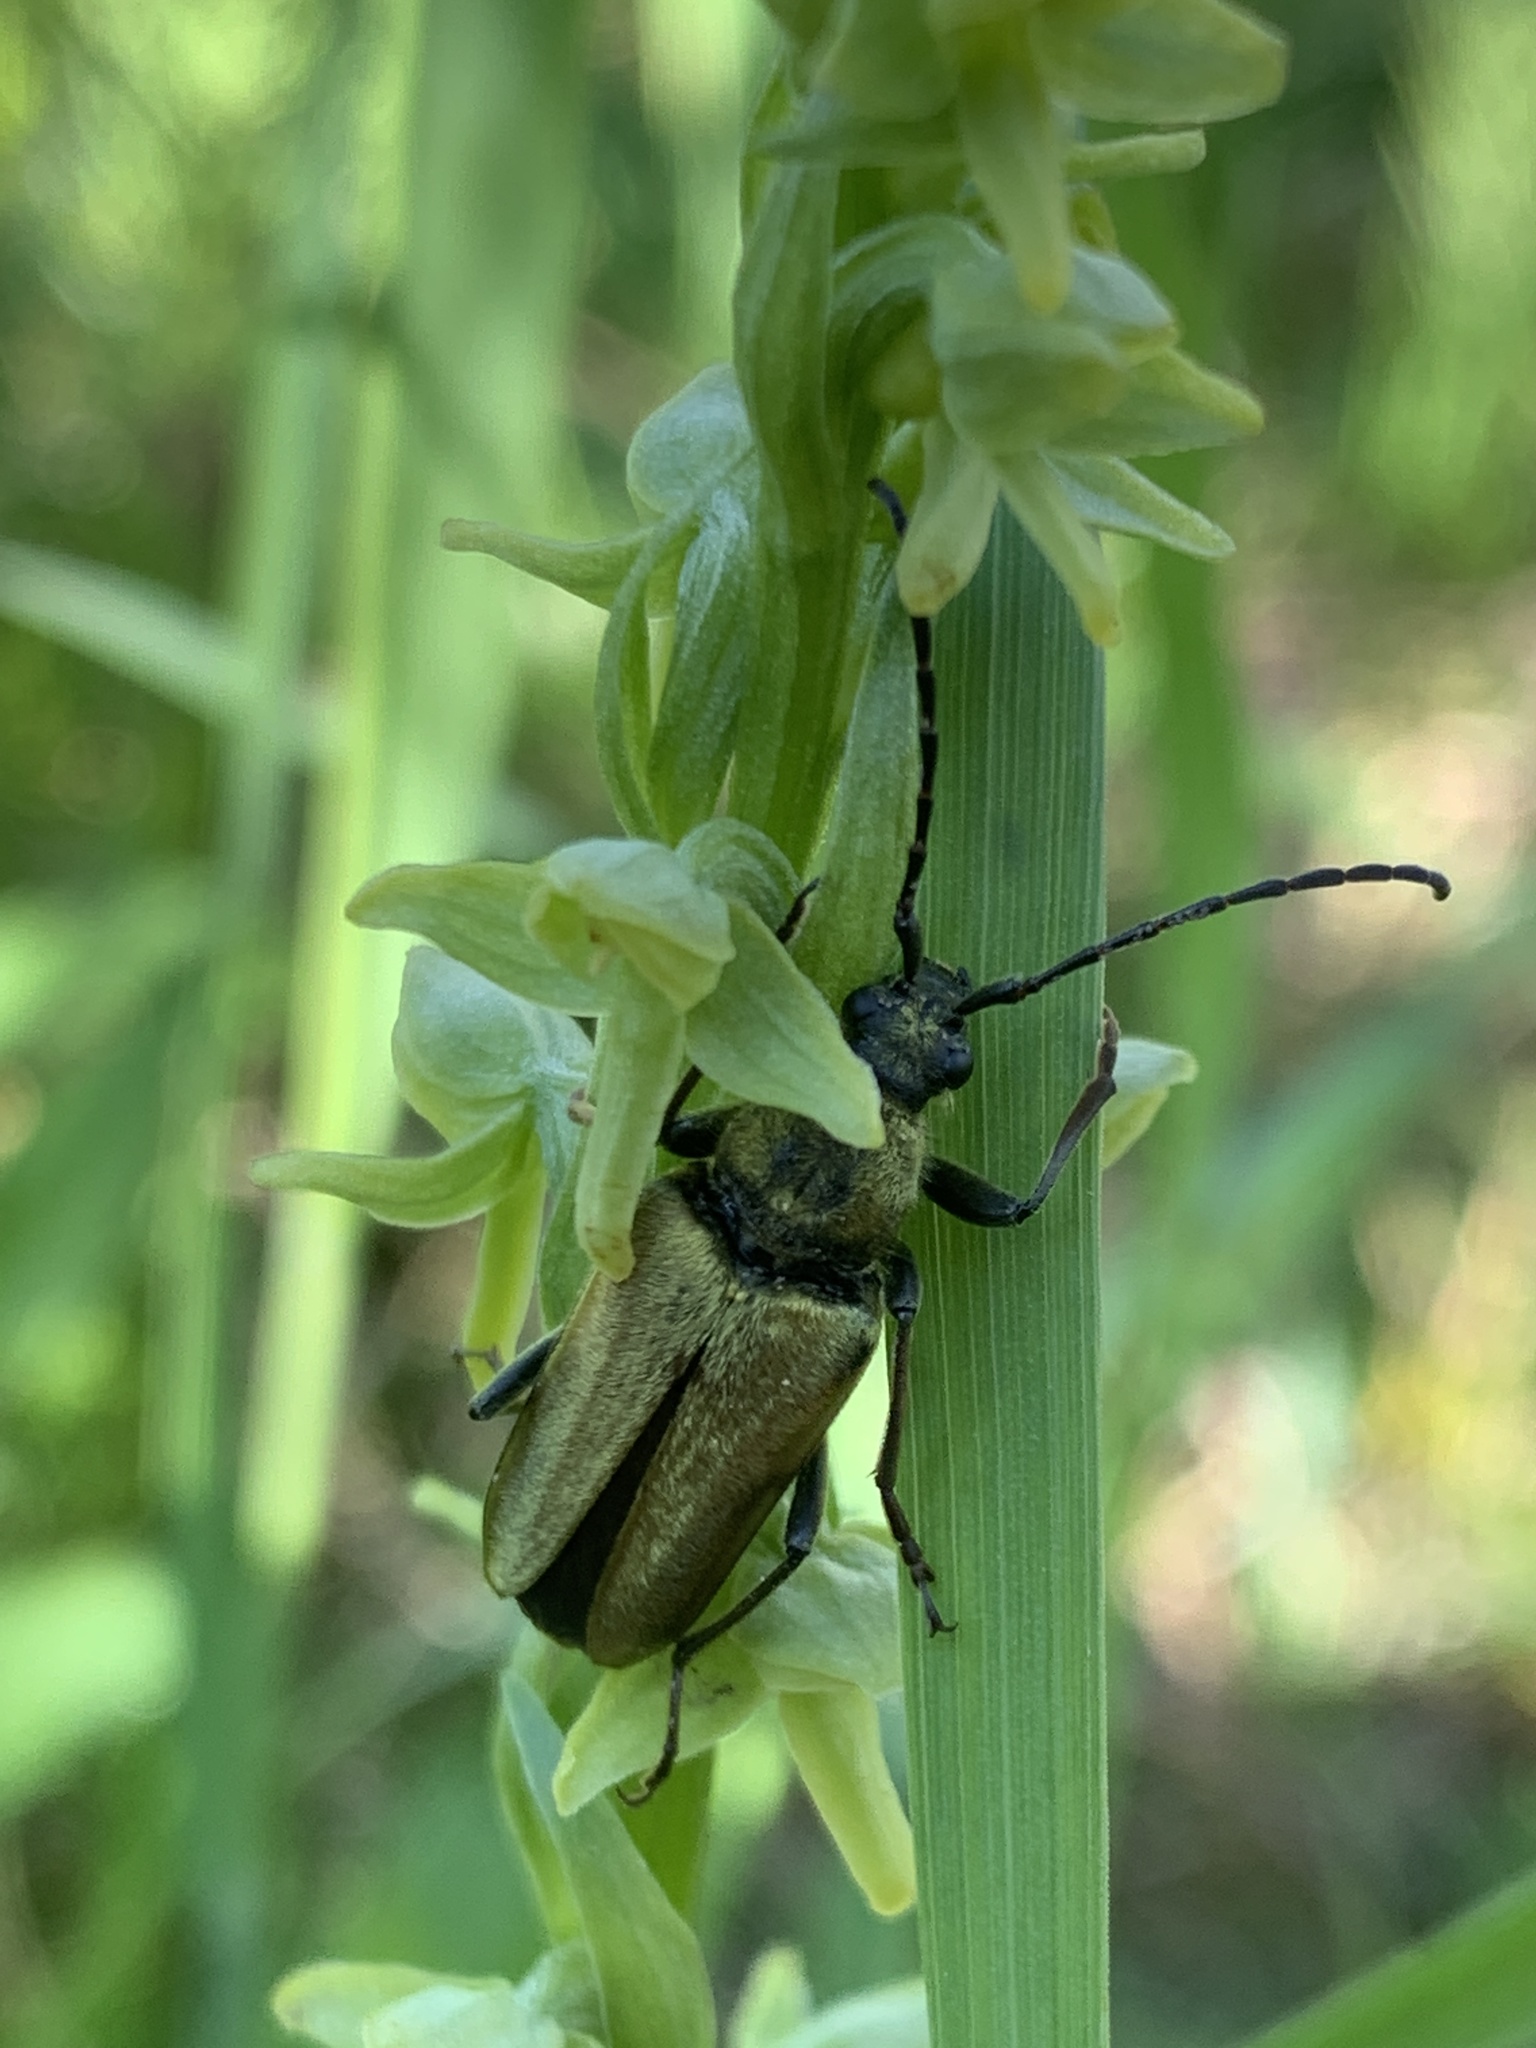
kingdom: Animalia
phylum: Arthropoda
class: Insecta
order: Coleoptera
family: Cerambycidae
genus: Cosmosalia
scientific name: Cosmosalia chrysocoma
